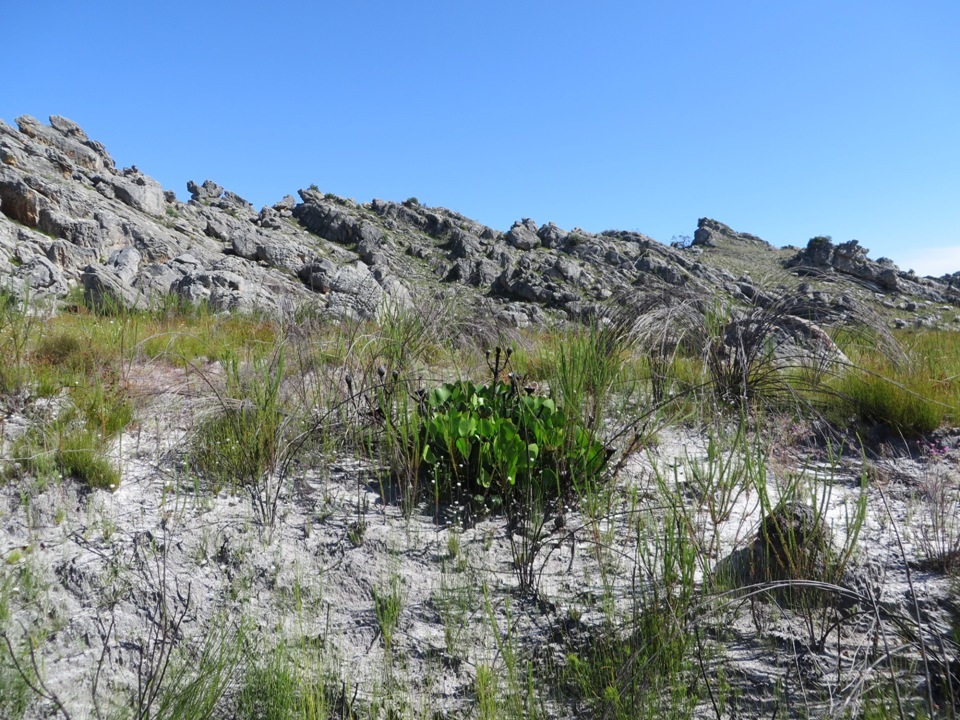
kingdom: Plantae
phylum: Tracheophyta
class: Magnoliopsida
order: Proteales
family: Proteaceae
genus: Protea
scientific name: Protea cynaroides
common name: King protea
